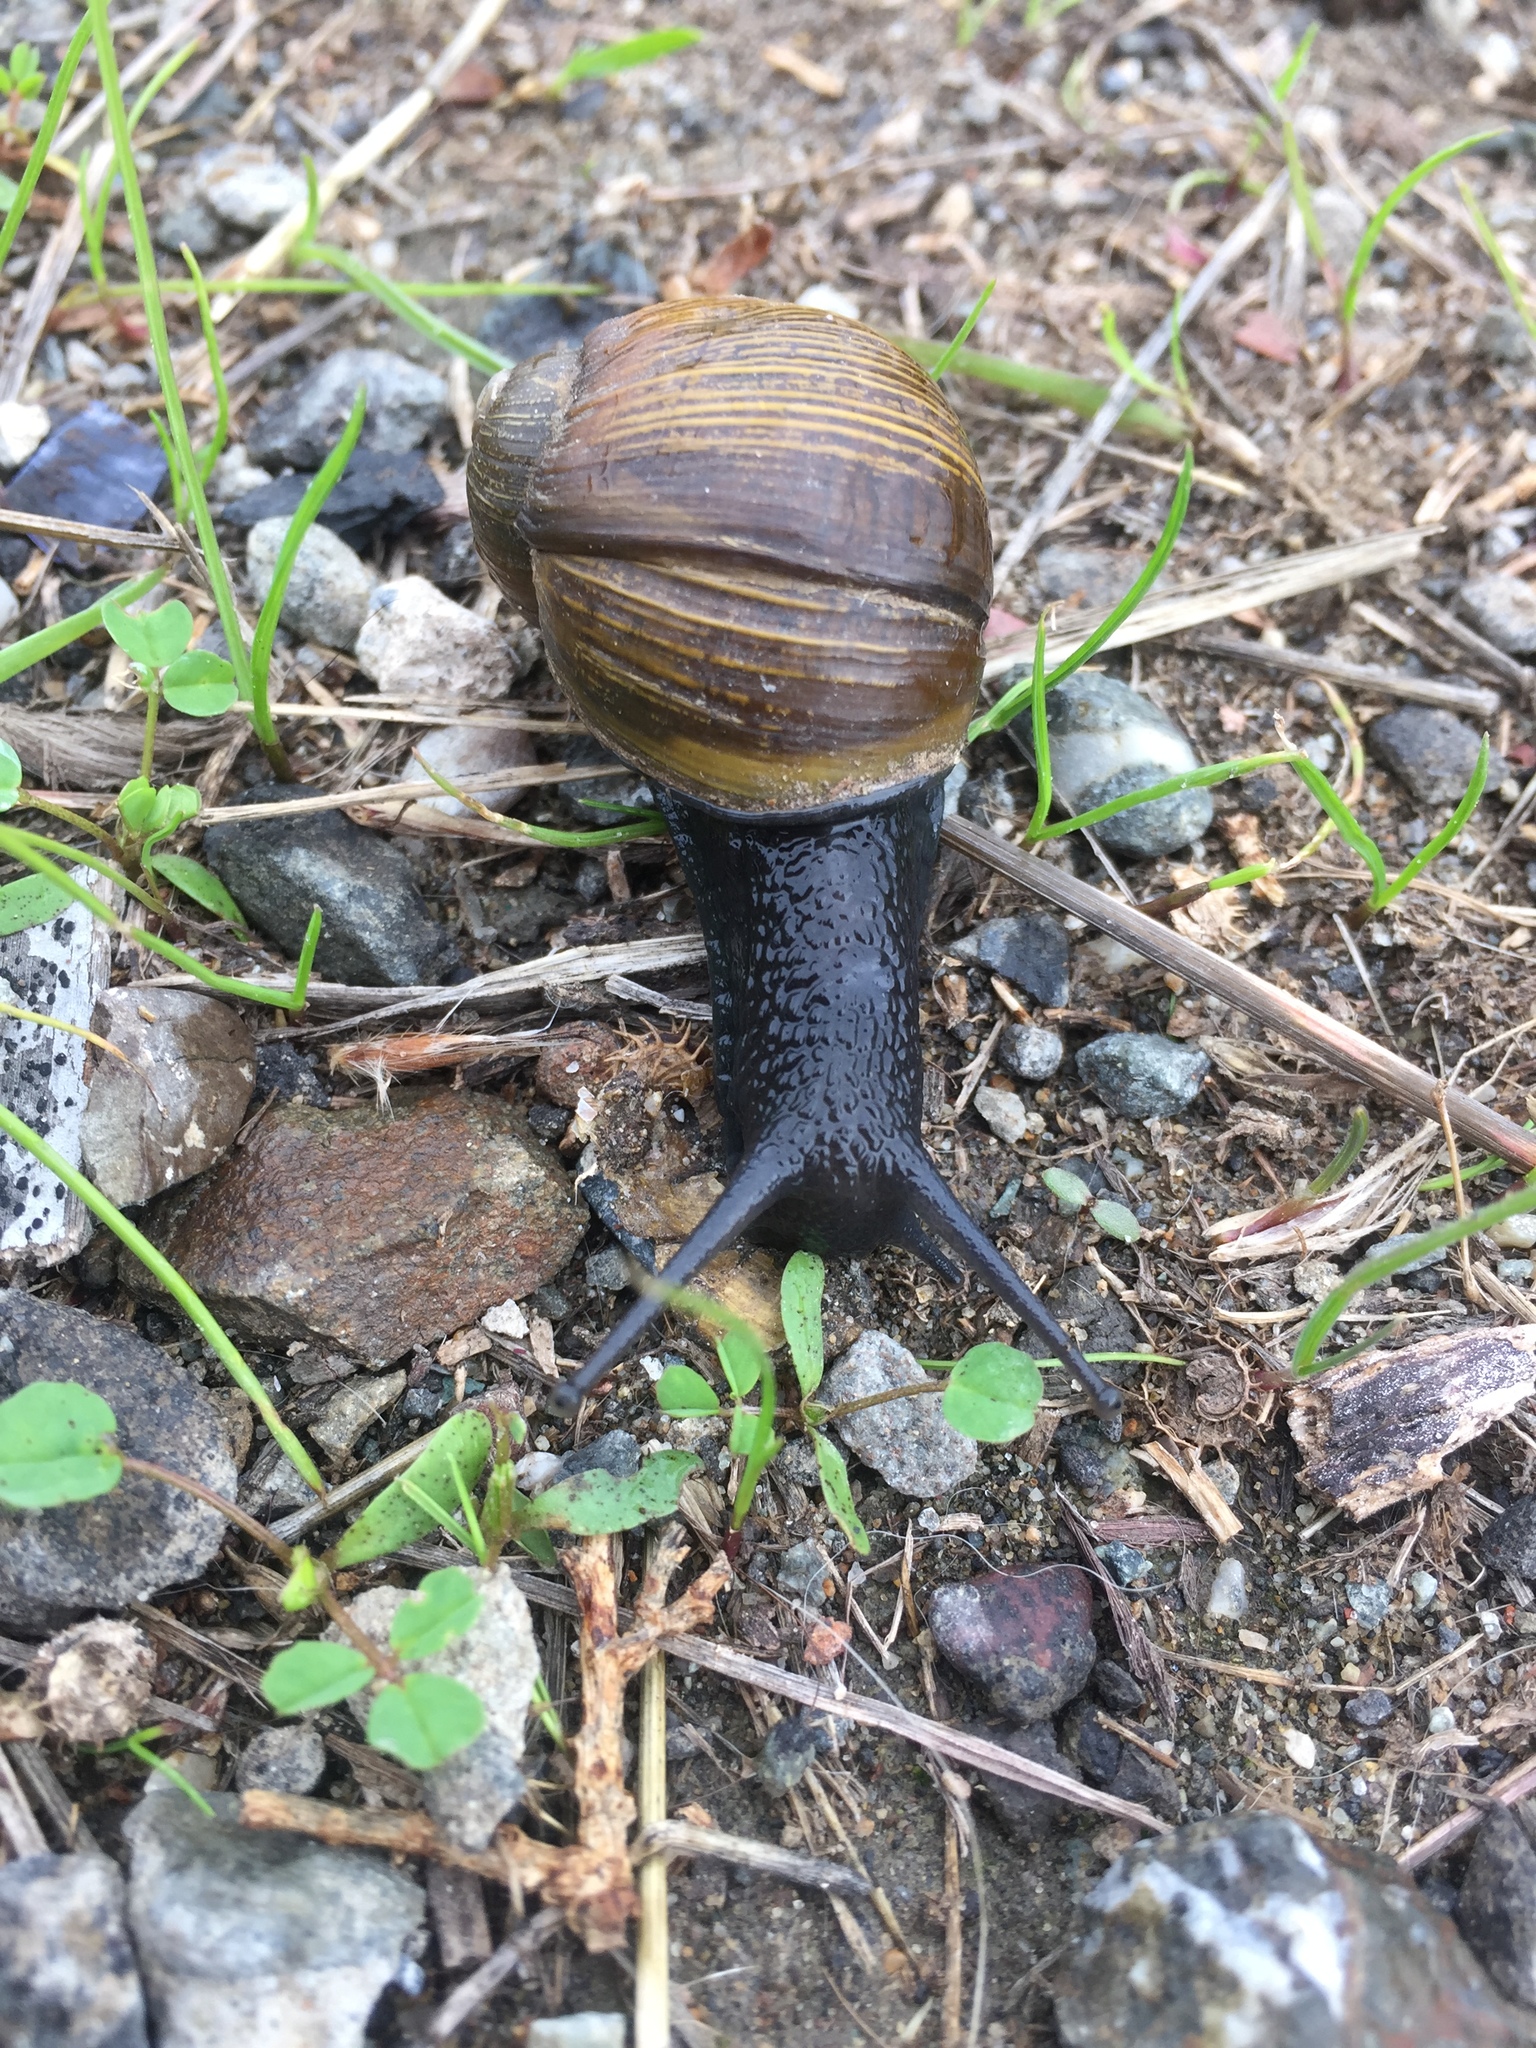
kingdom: Animalia
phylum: Mollusca
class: Gastropoda
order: Stylommatophora
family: Helicidae
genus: Cantareus
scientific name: Cantareus apertus
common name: Green gardensnail
